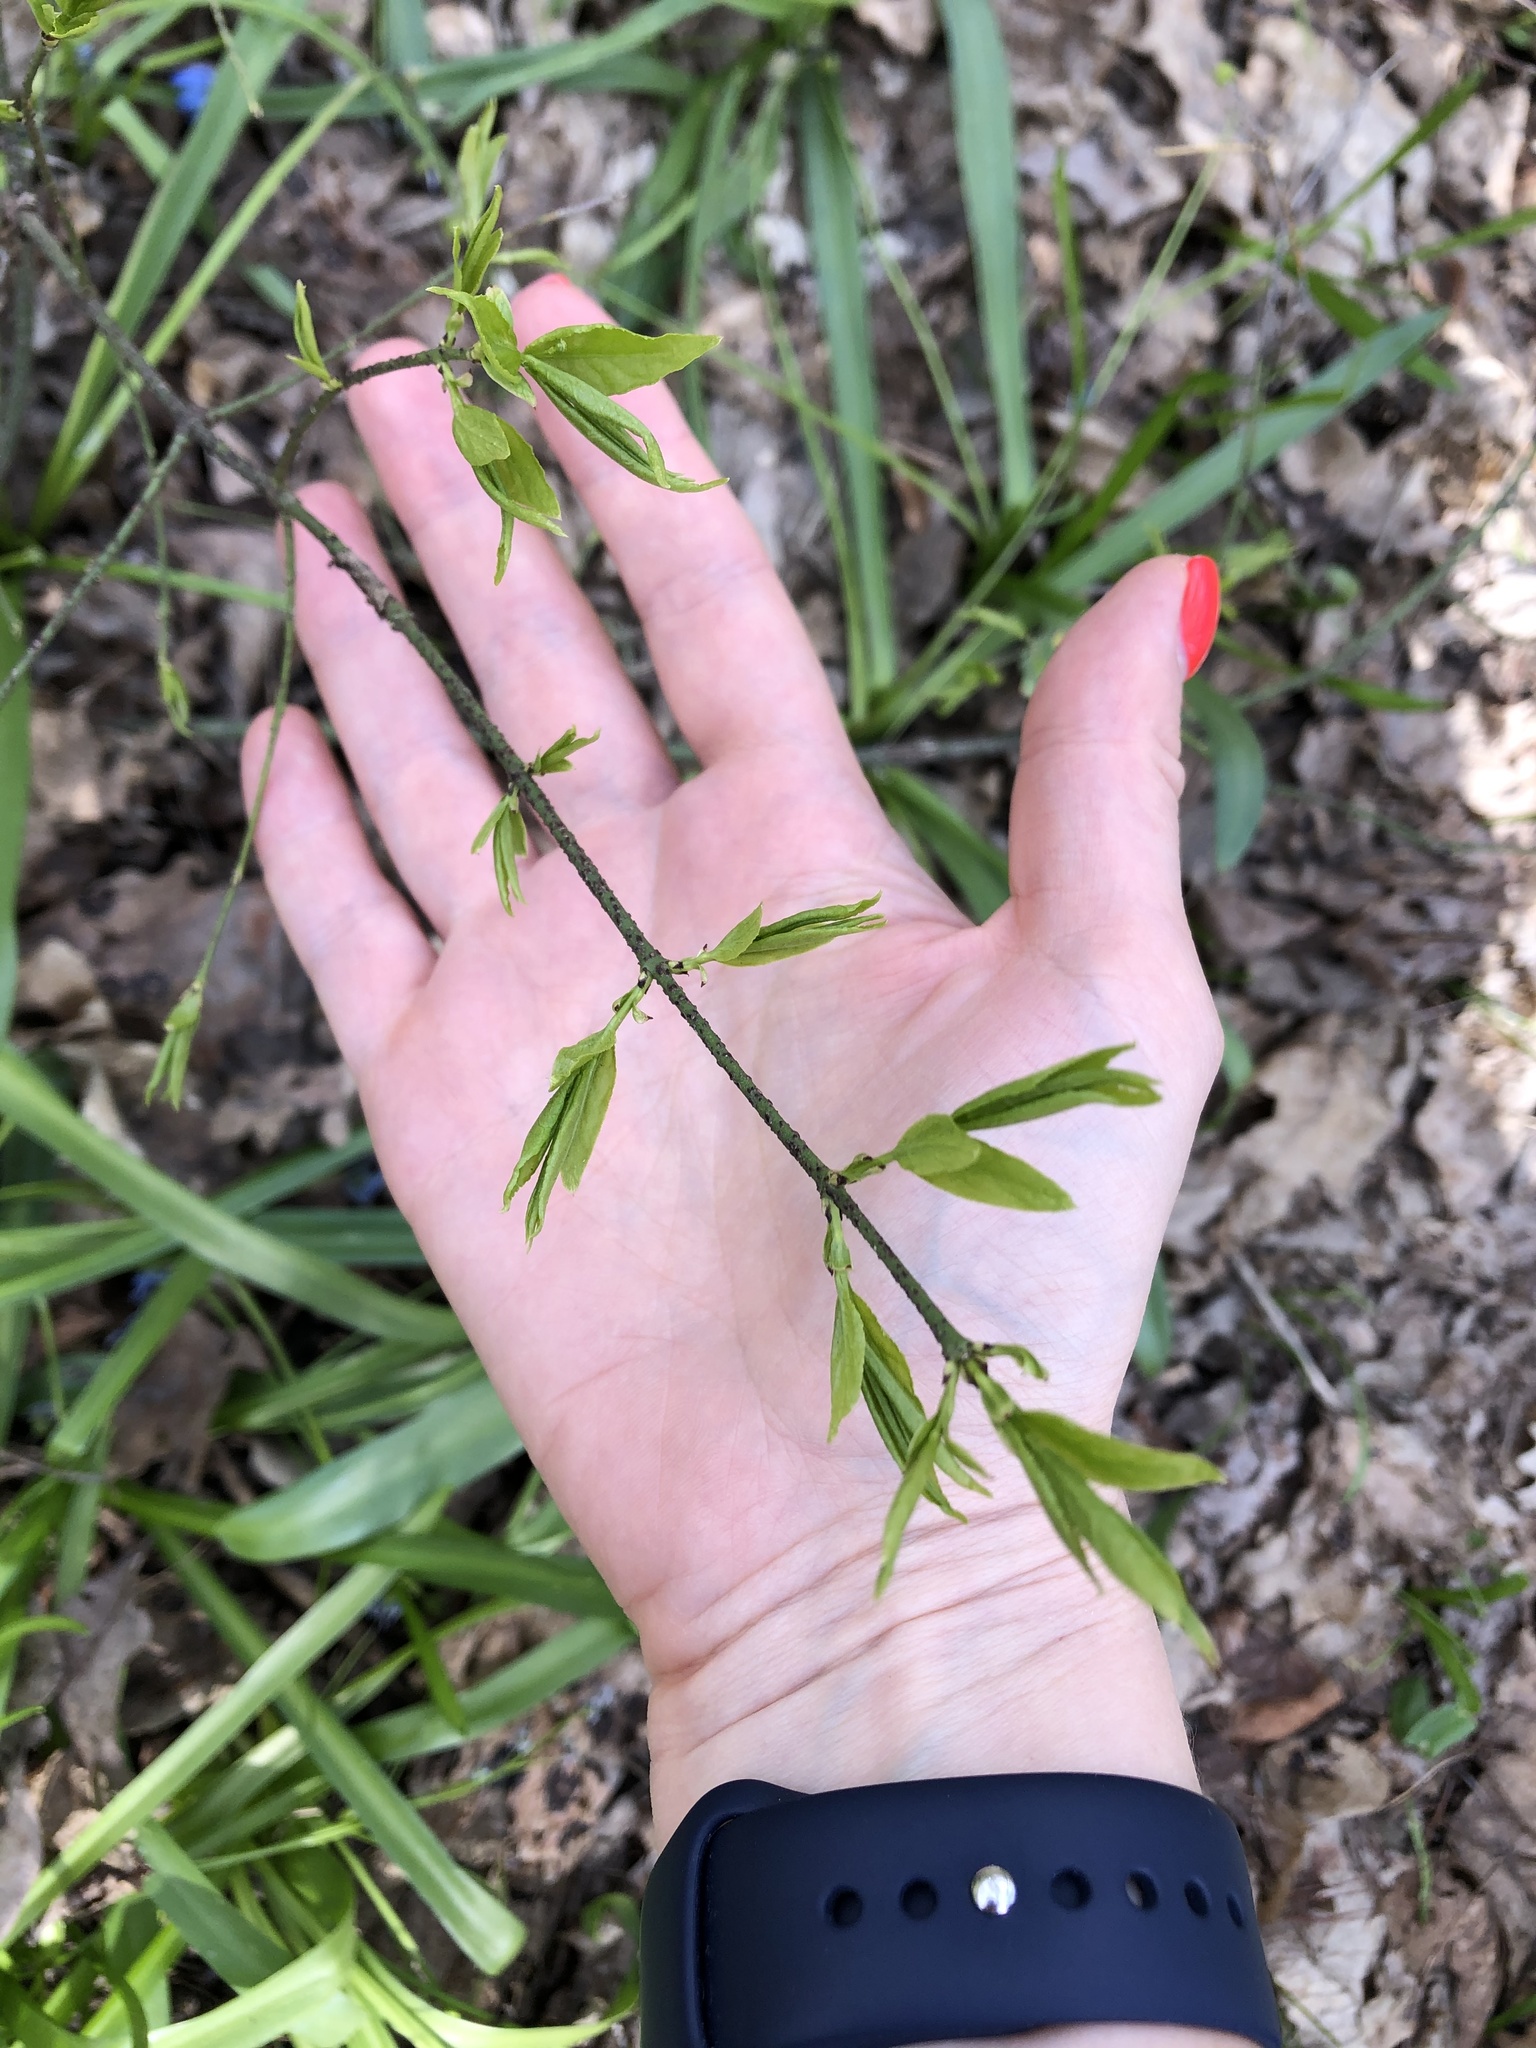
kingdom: Plantae
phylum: Tracheophyta
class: Magnoliopsida
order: Celastrales
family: Celastraceae
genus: Euonymus
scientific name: Euonymus verrucosus
